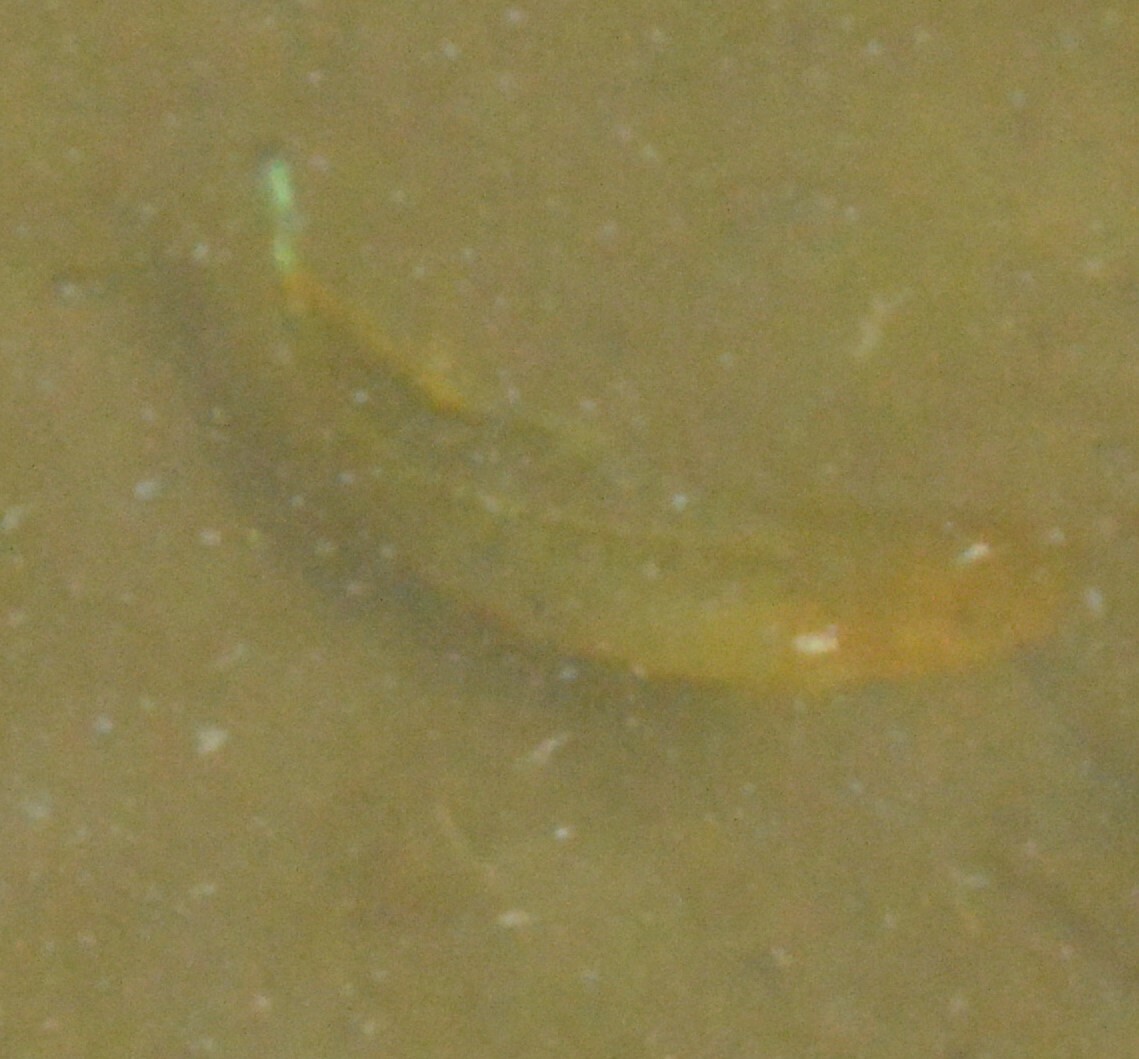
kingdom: Animalia
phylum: Chordata
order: Cyprinodontiformes
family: Poeciliidae
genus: Poecilia
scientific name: Poecilia latipinna
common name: Sailfin molly
